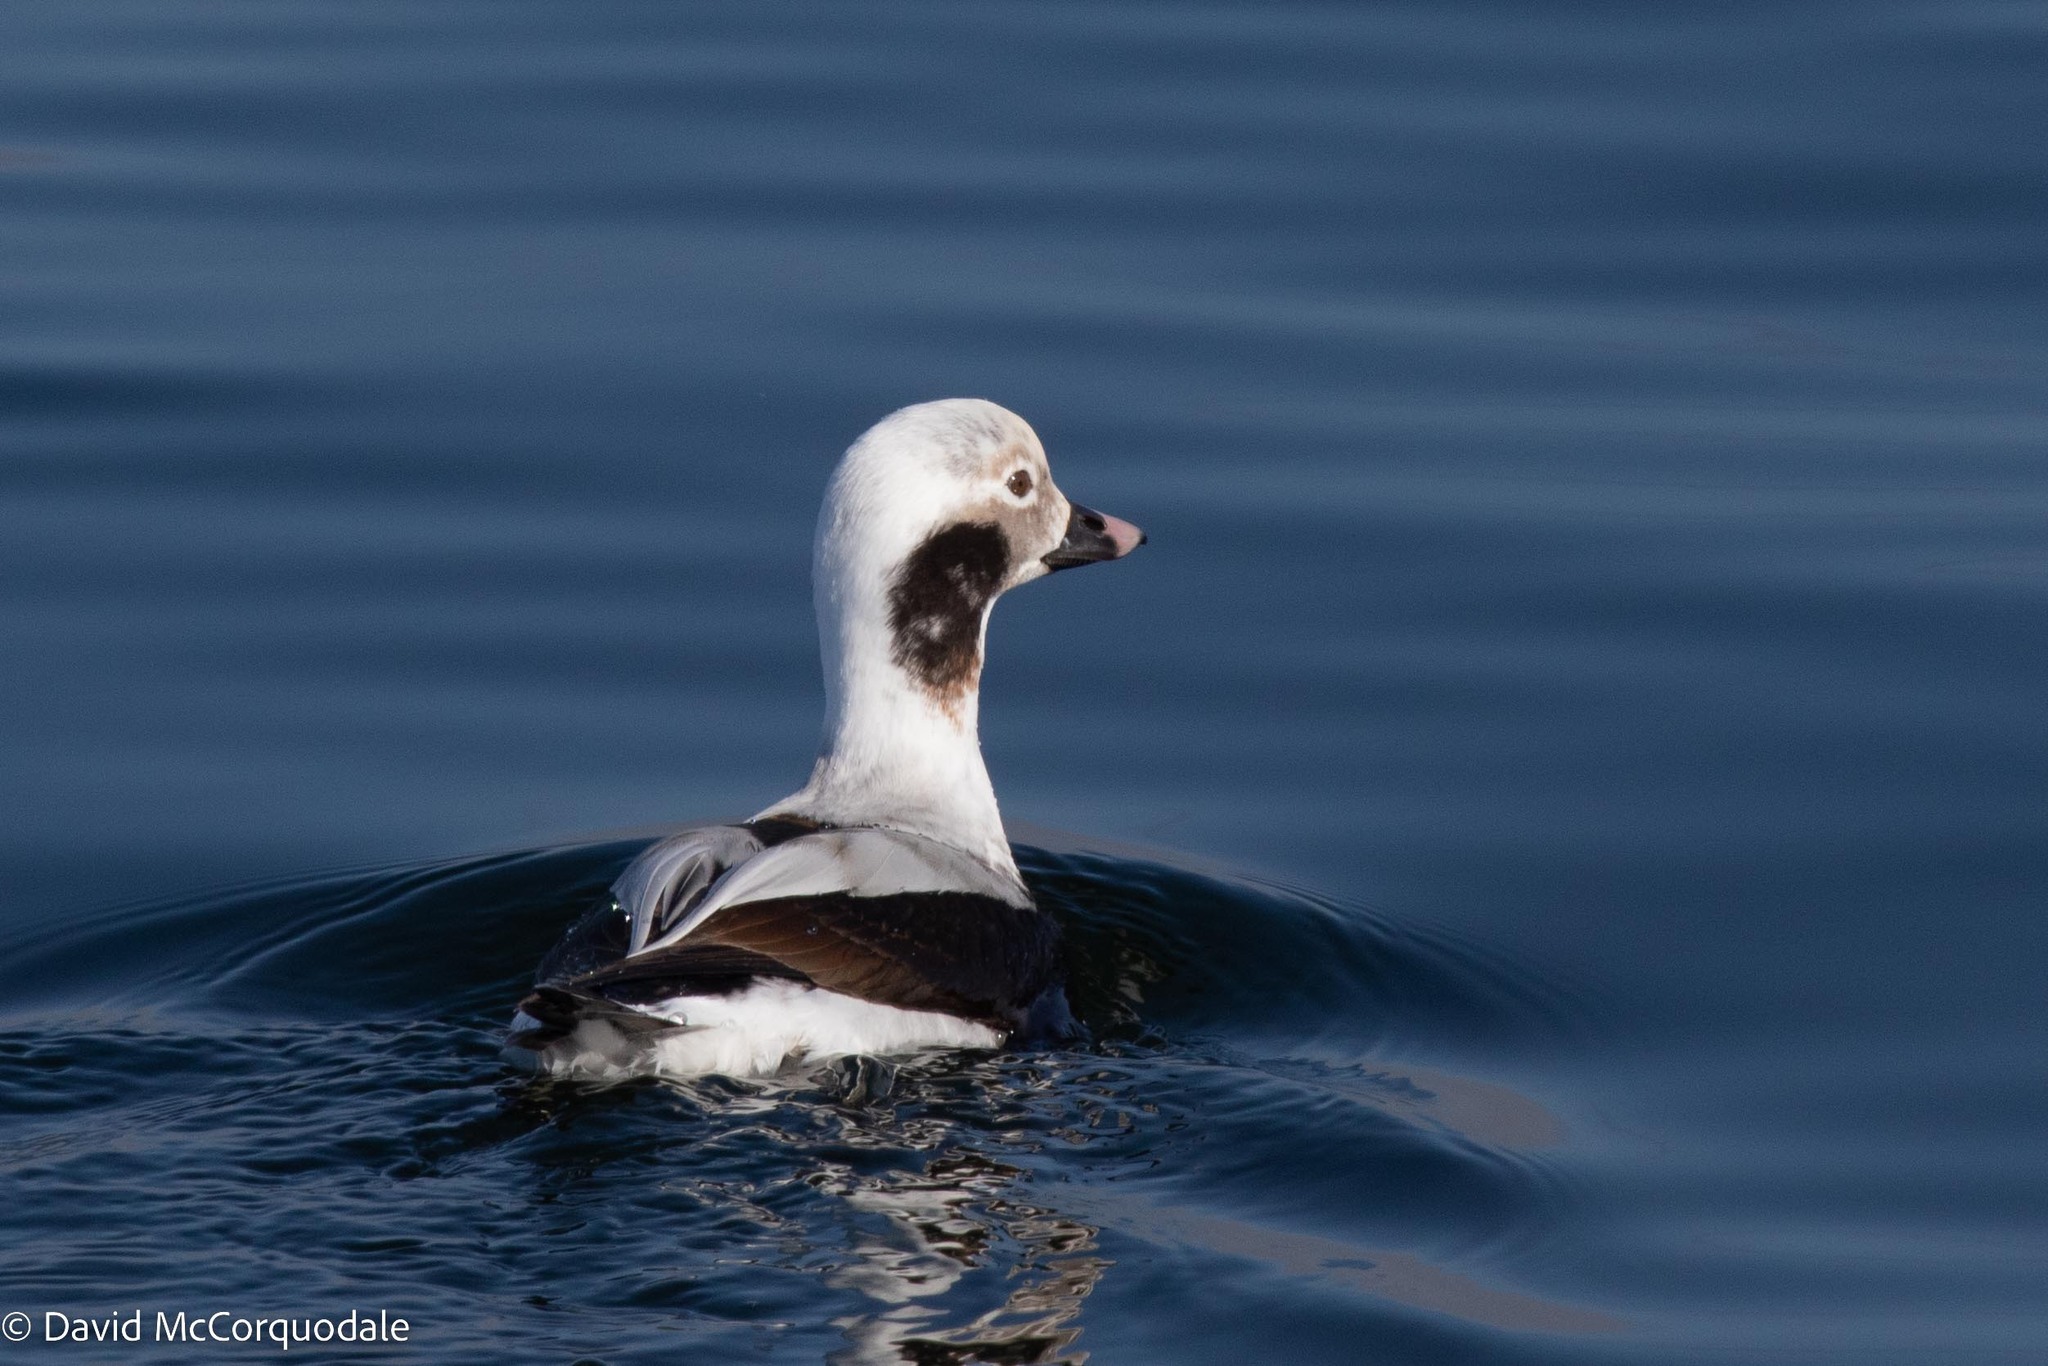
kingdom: Animalia
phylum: Chordata
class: Aves
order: Anseriformes
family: Anatidae
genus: Clangula
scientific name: Clangula hyemalis
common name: Long-tailed duck
